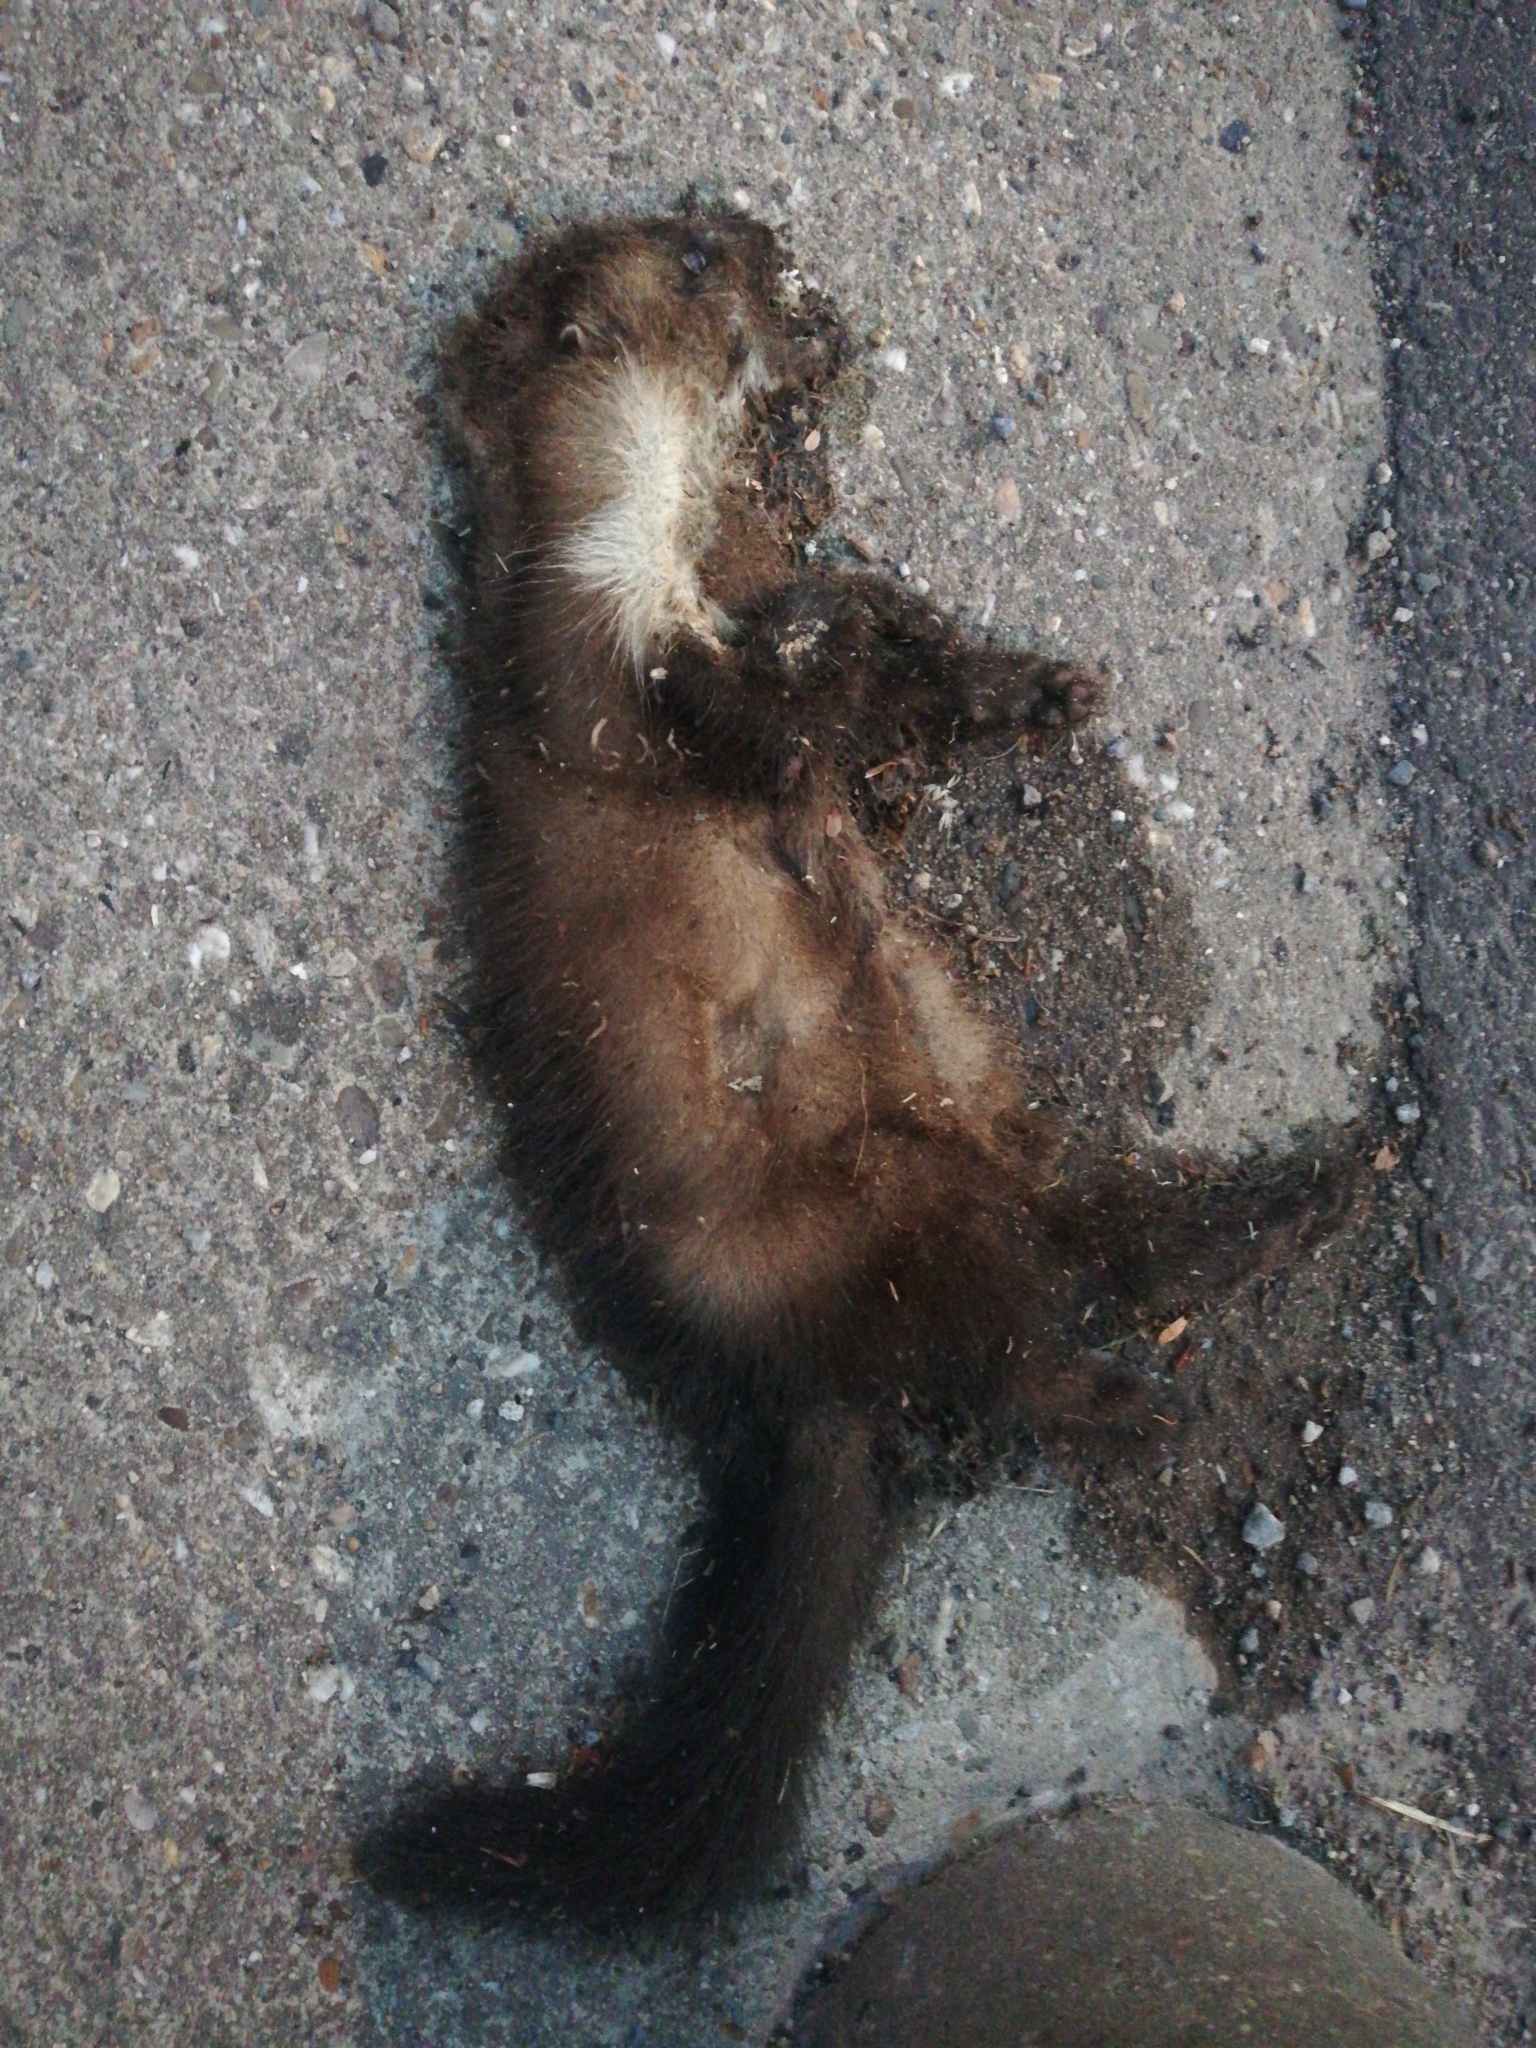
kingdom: Animalia
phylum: Chordata
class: Mammalia
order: Carnivora
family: Mustelidae
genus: Martes
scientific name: Martes foina
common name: Beech marten
